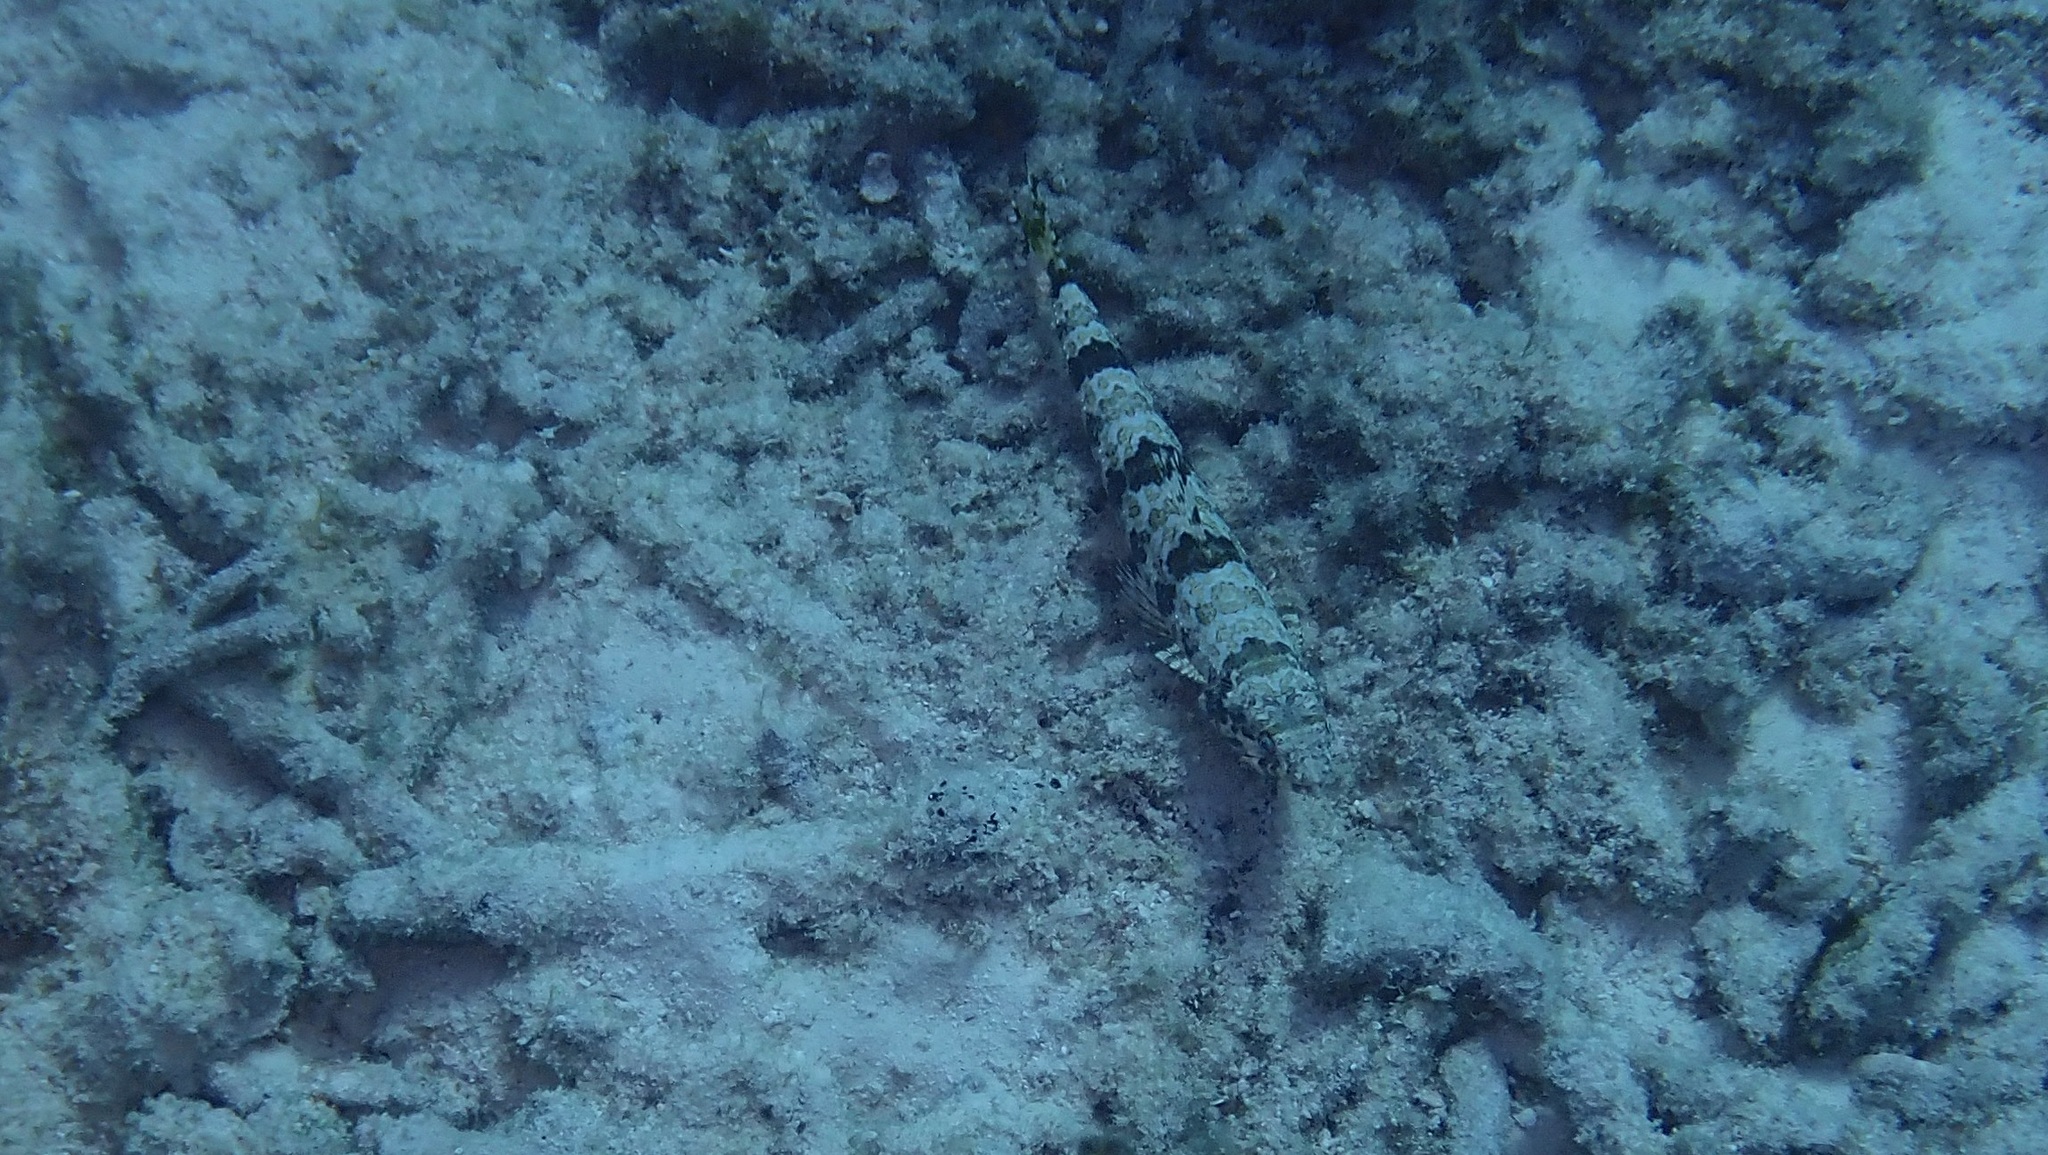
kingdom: Animalia
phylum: Chordata
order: Aulopiformes
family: Synodontidae
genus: Synodus
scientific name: Synodus intermedius
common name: Sand diver
